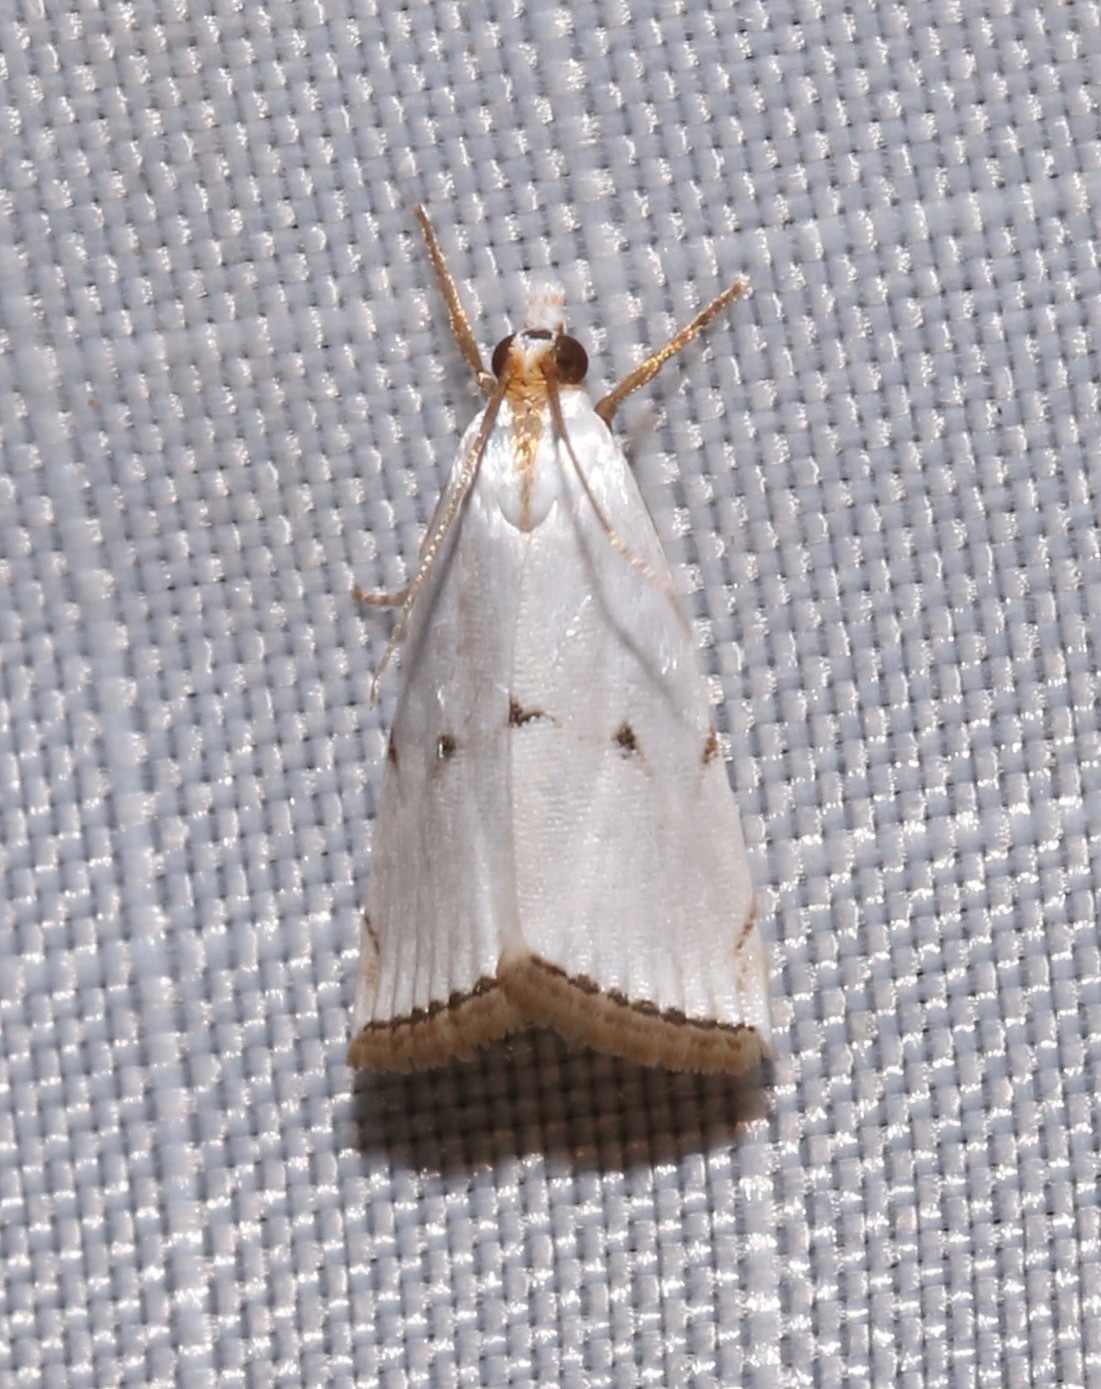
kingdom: Animalia
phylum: Arthropoda
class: Insecta
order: Lepidoptera
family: Crambidae
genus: Argyria
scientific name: Argyria pusillalis
